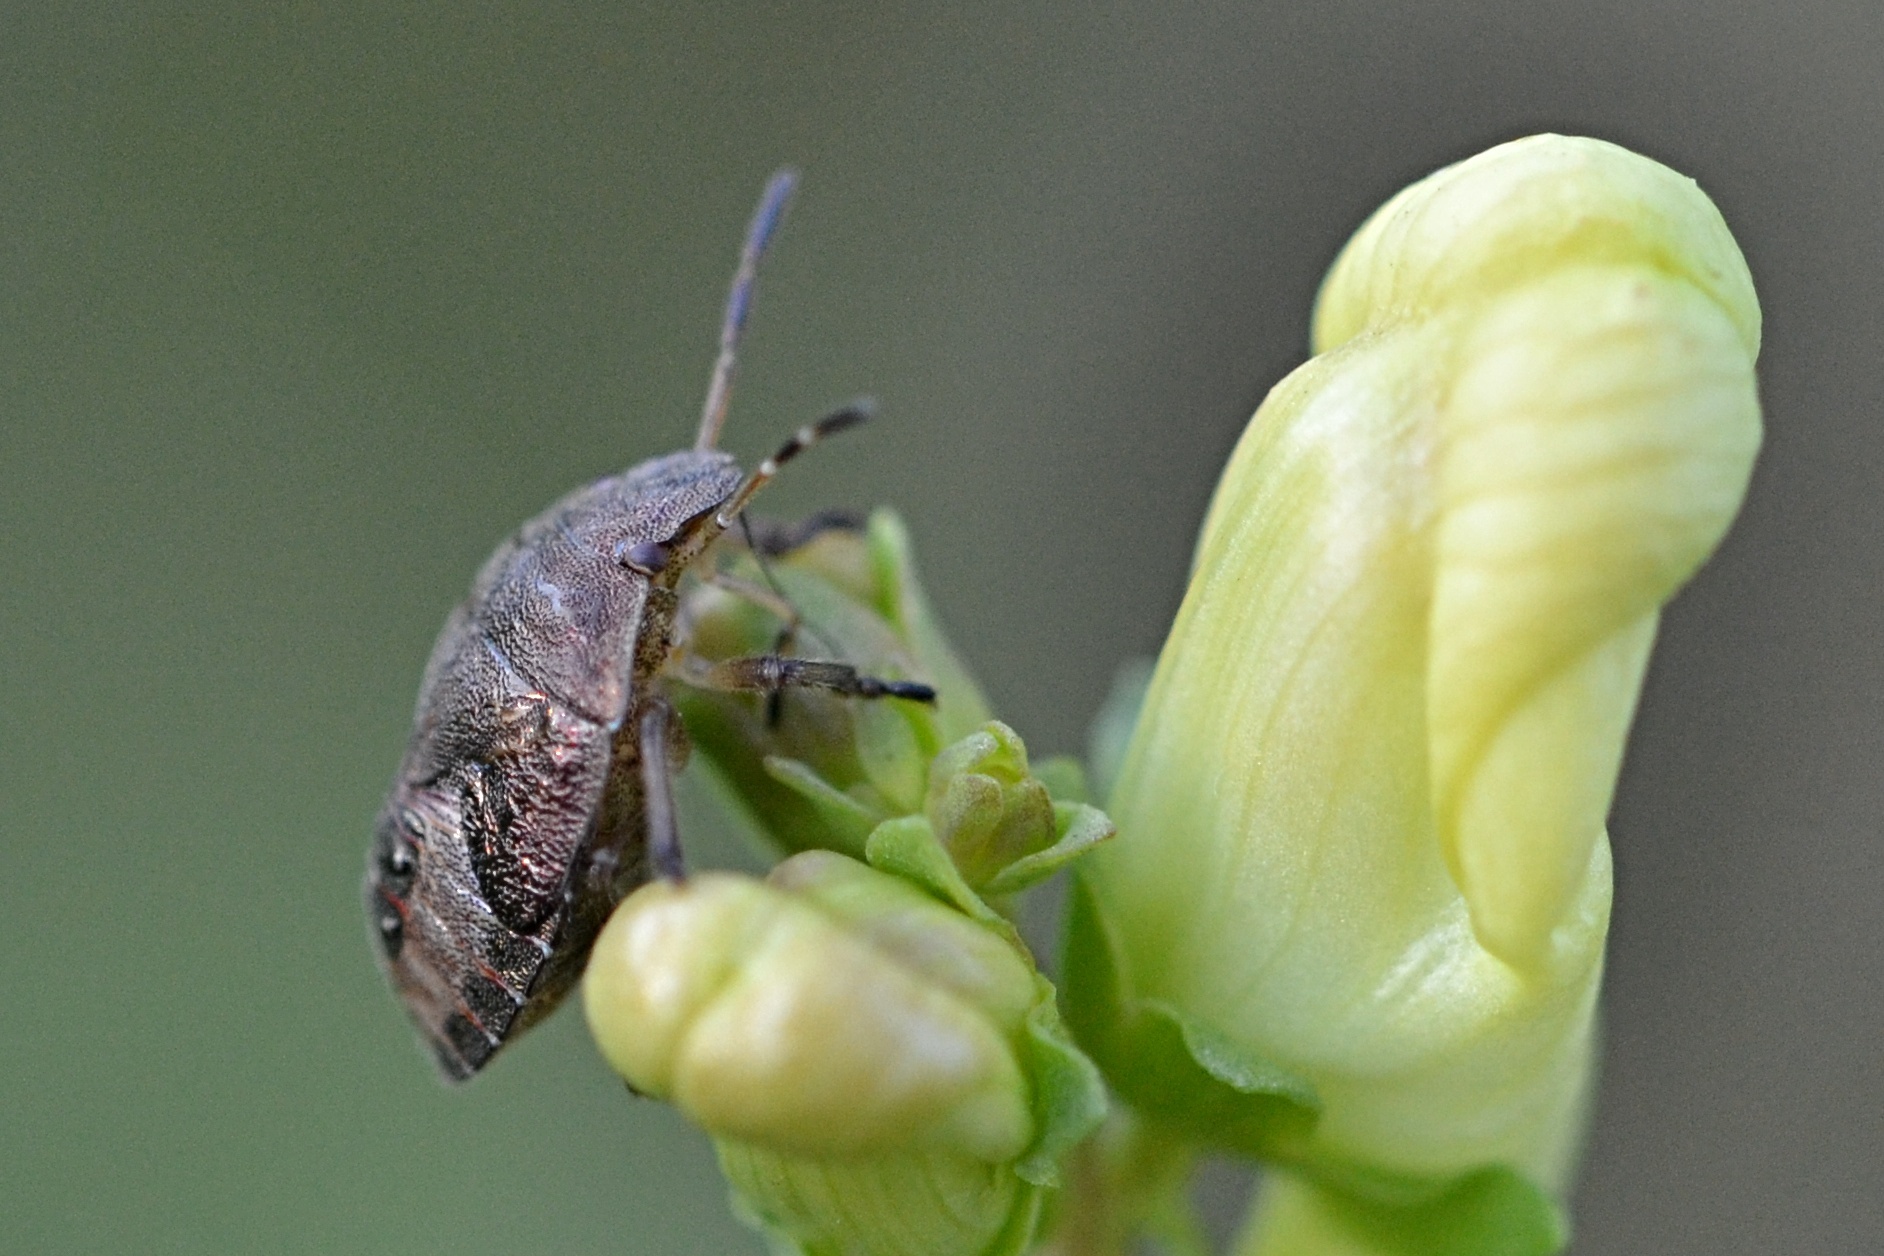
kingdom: Animalia
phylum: Arthropoda
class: Insecta
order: Hemiptera
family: Pentatomidae
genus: Holcostethus
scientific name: Holcostethus strictus
